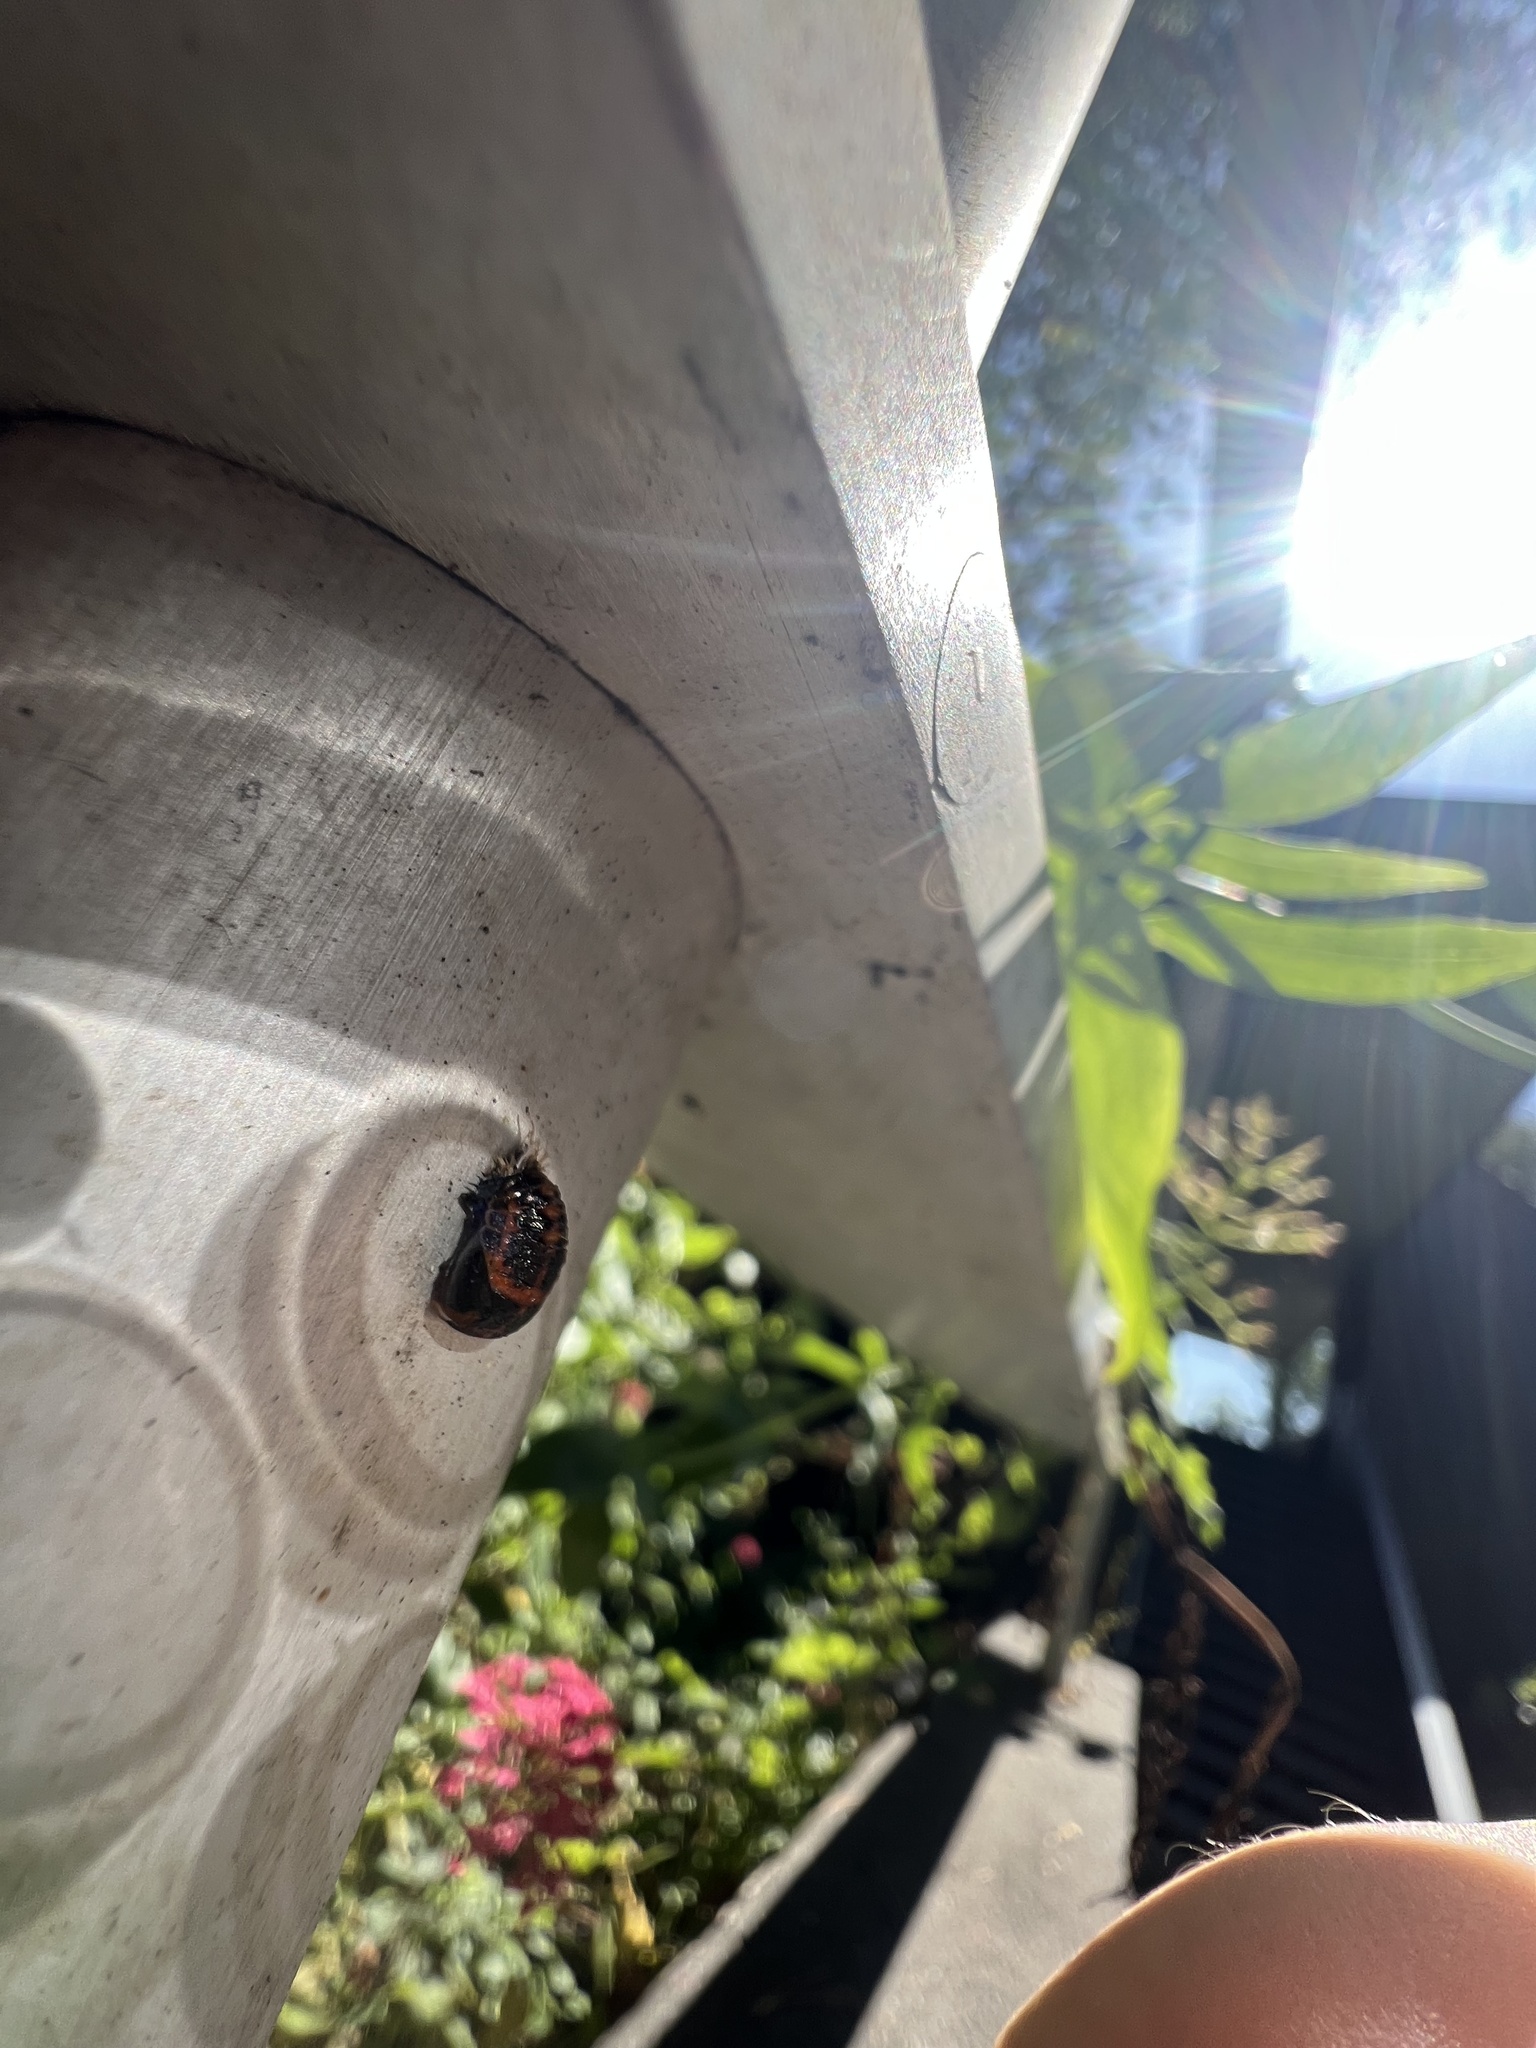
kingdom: Animalia
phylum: Arthropoda
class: Insecta
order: Coleoptera
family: Coccinellidae
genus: Harmonia
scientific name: Harmonia axyridis
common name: Harlequin ladybird
